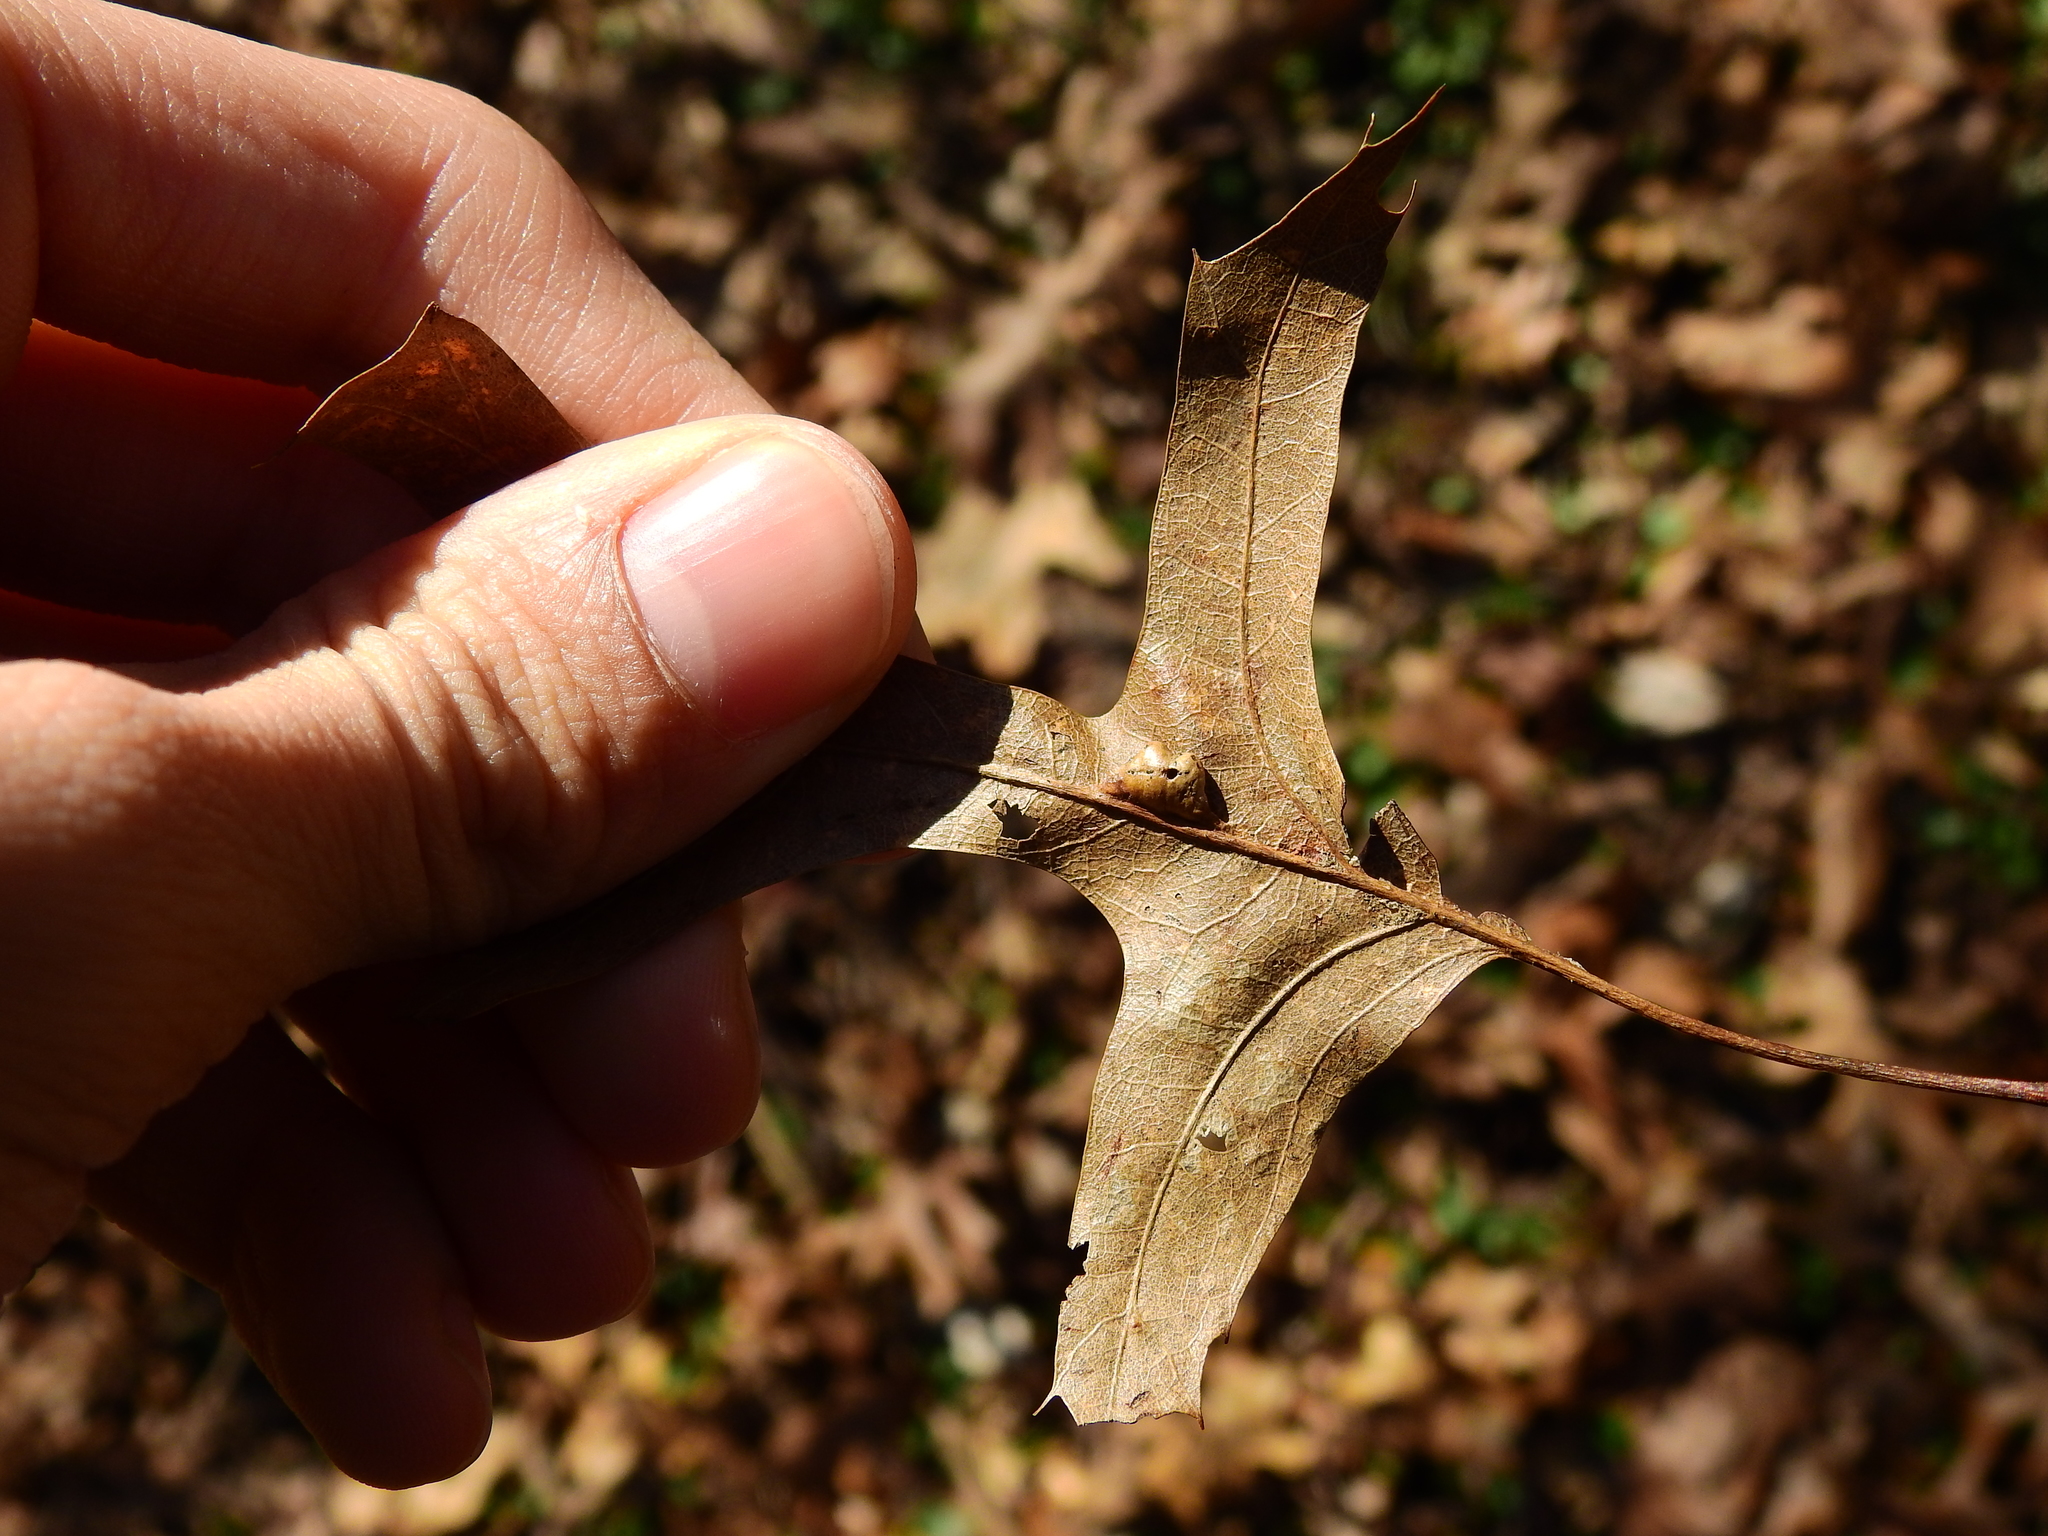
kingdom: Animalia
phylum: Arthropoda
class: Insecta
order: Diptera
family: Cecidomyiidae
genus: Macrodiplosis
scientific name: Macrodiplosis majalis
